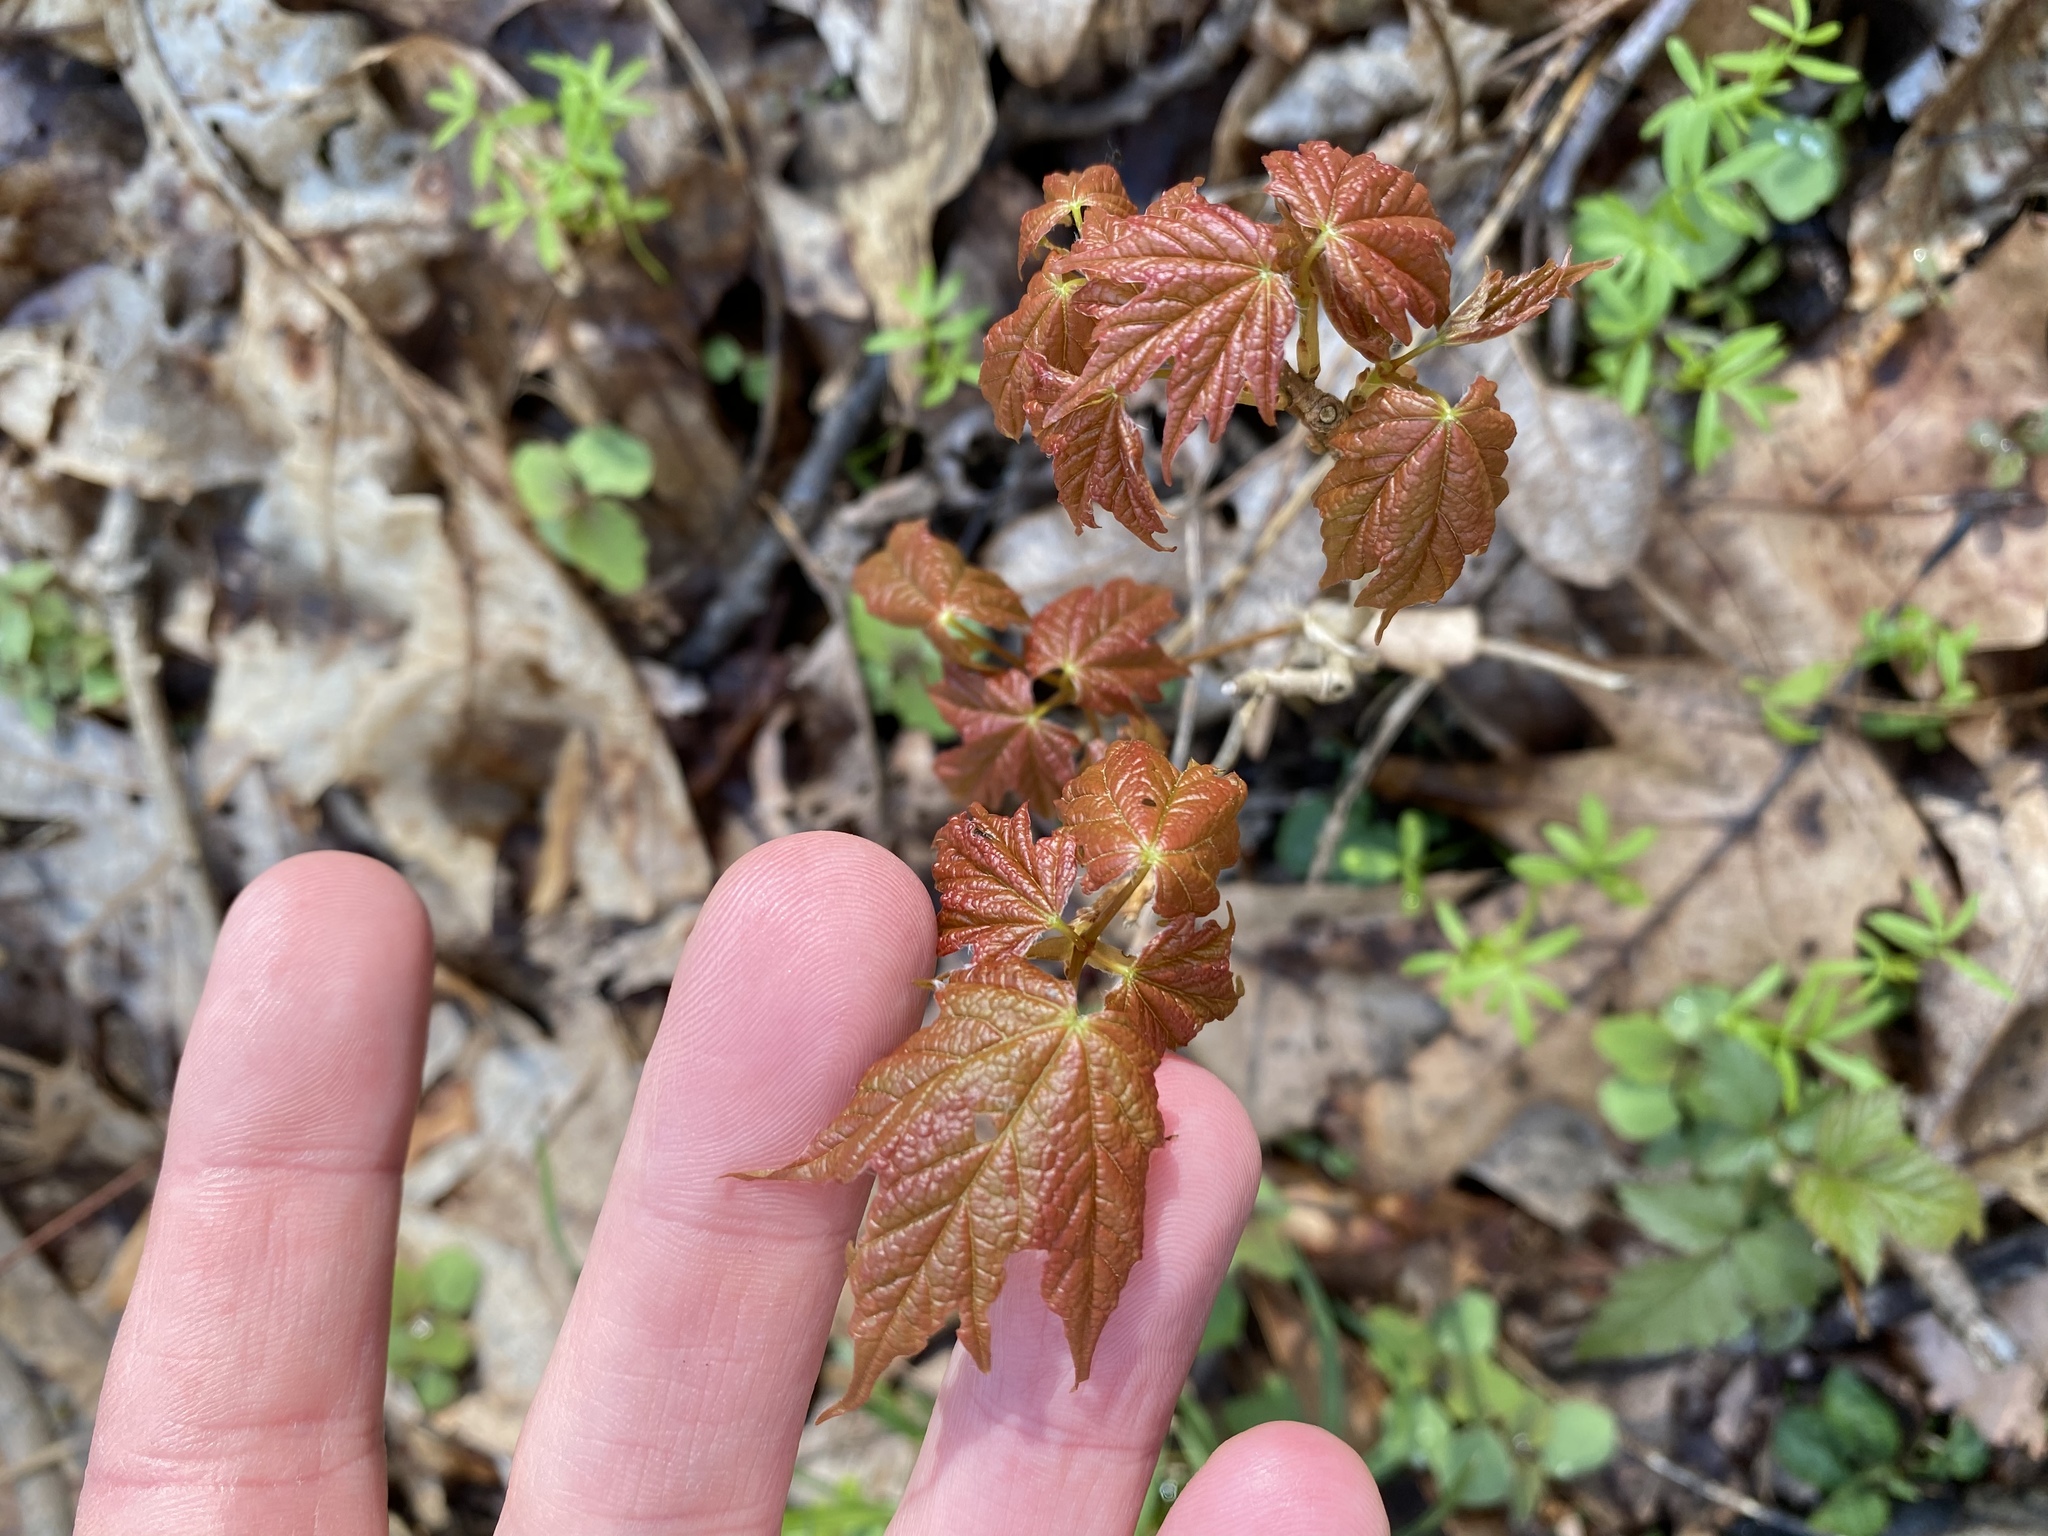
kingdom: Plantae
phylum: Tracheophyta
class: Magnoliopsida
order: Sapindales
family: Sapindaceae
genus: Acer
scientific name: Acer saccharum
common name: Sugar maple
